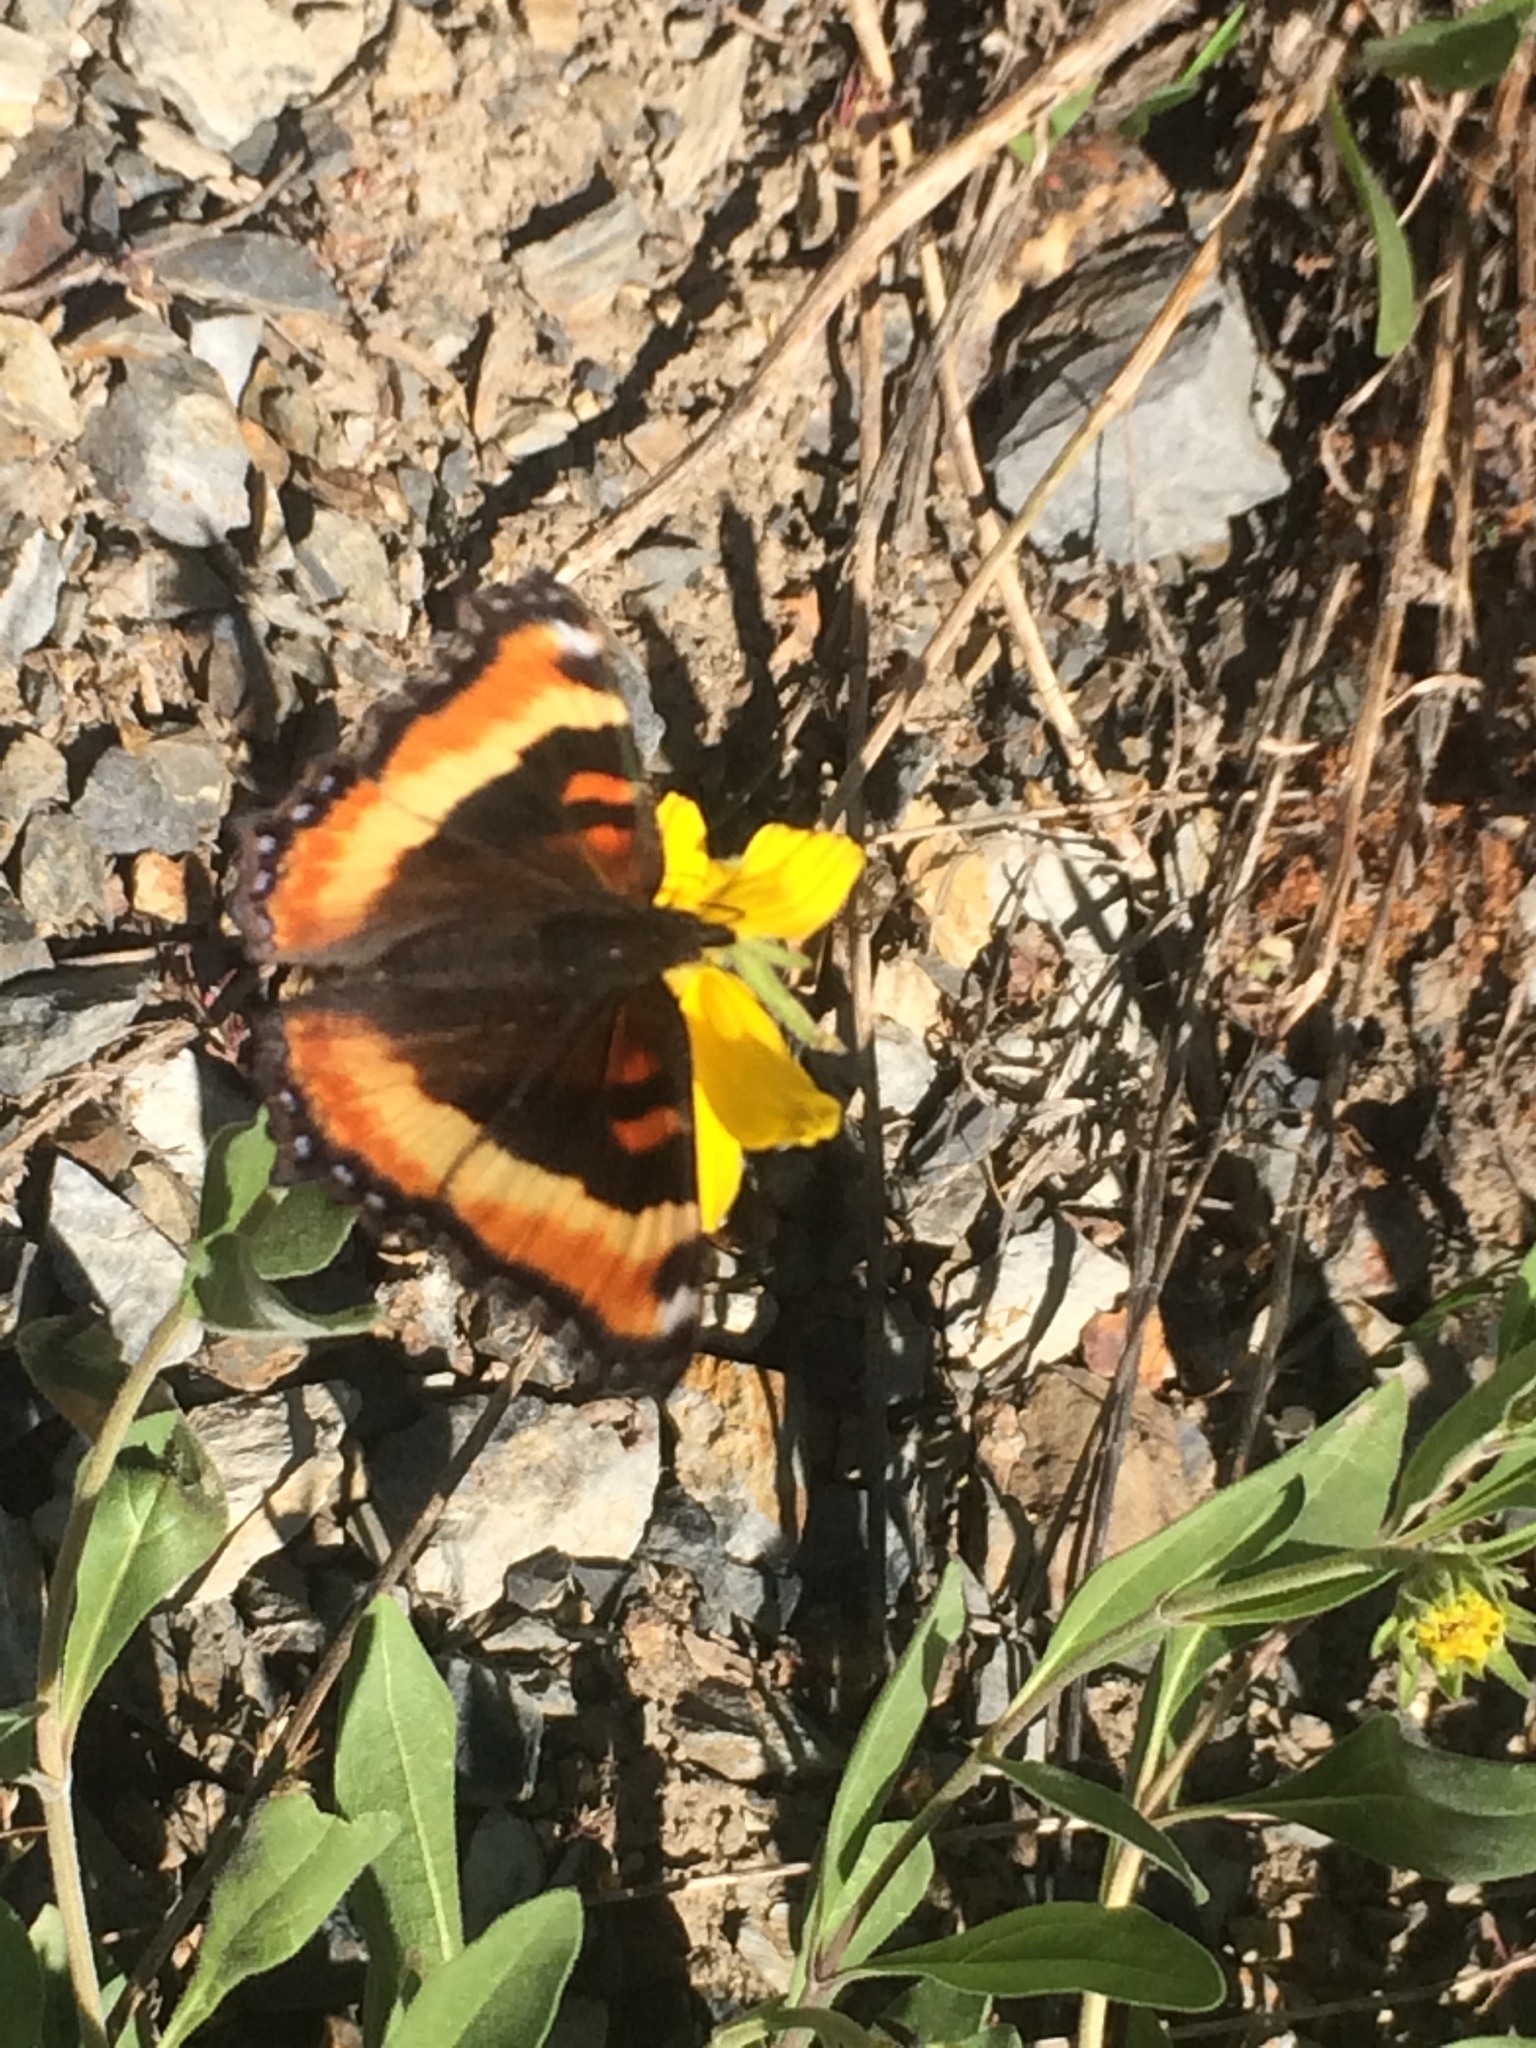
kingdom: Animalia
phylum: Arthropoda
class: Insecta
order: Lepidoptera
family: Nymphalidae
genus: Aglais
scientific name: Aglais milberti
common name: Milbert's tortoiseshell
